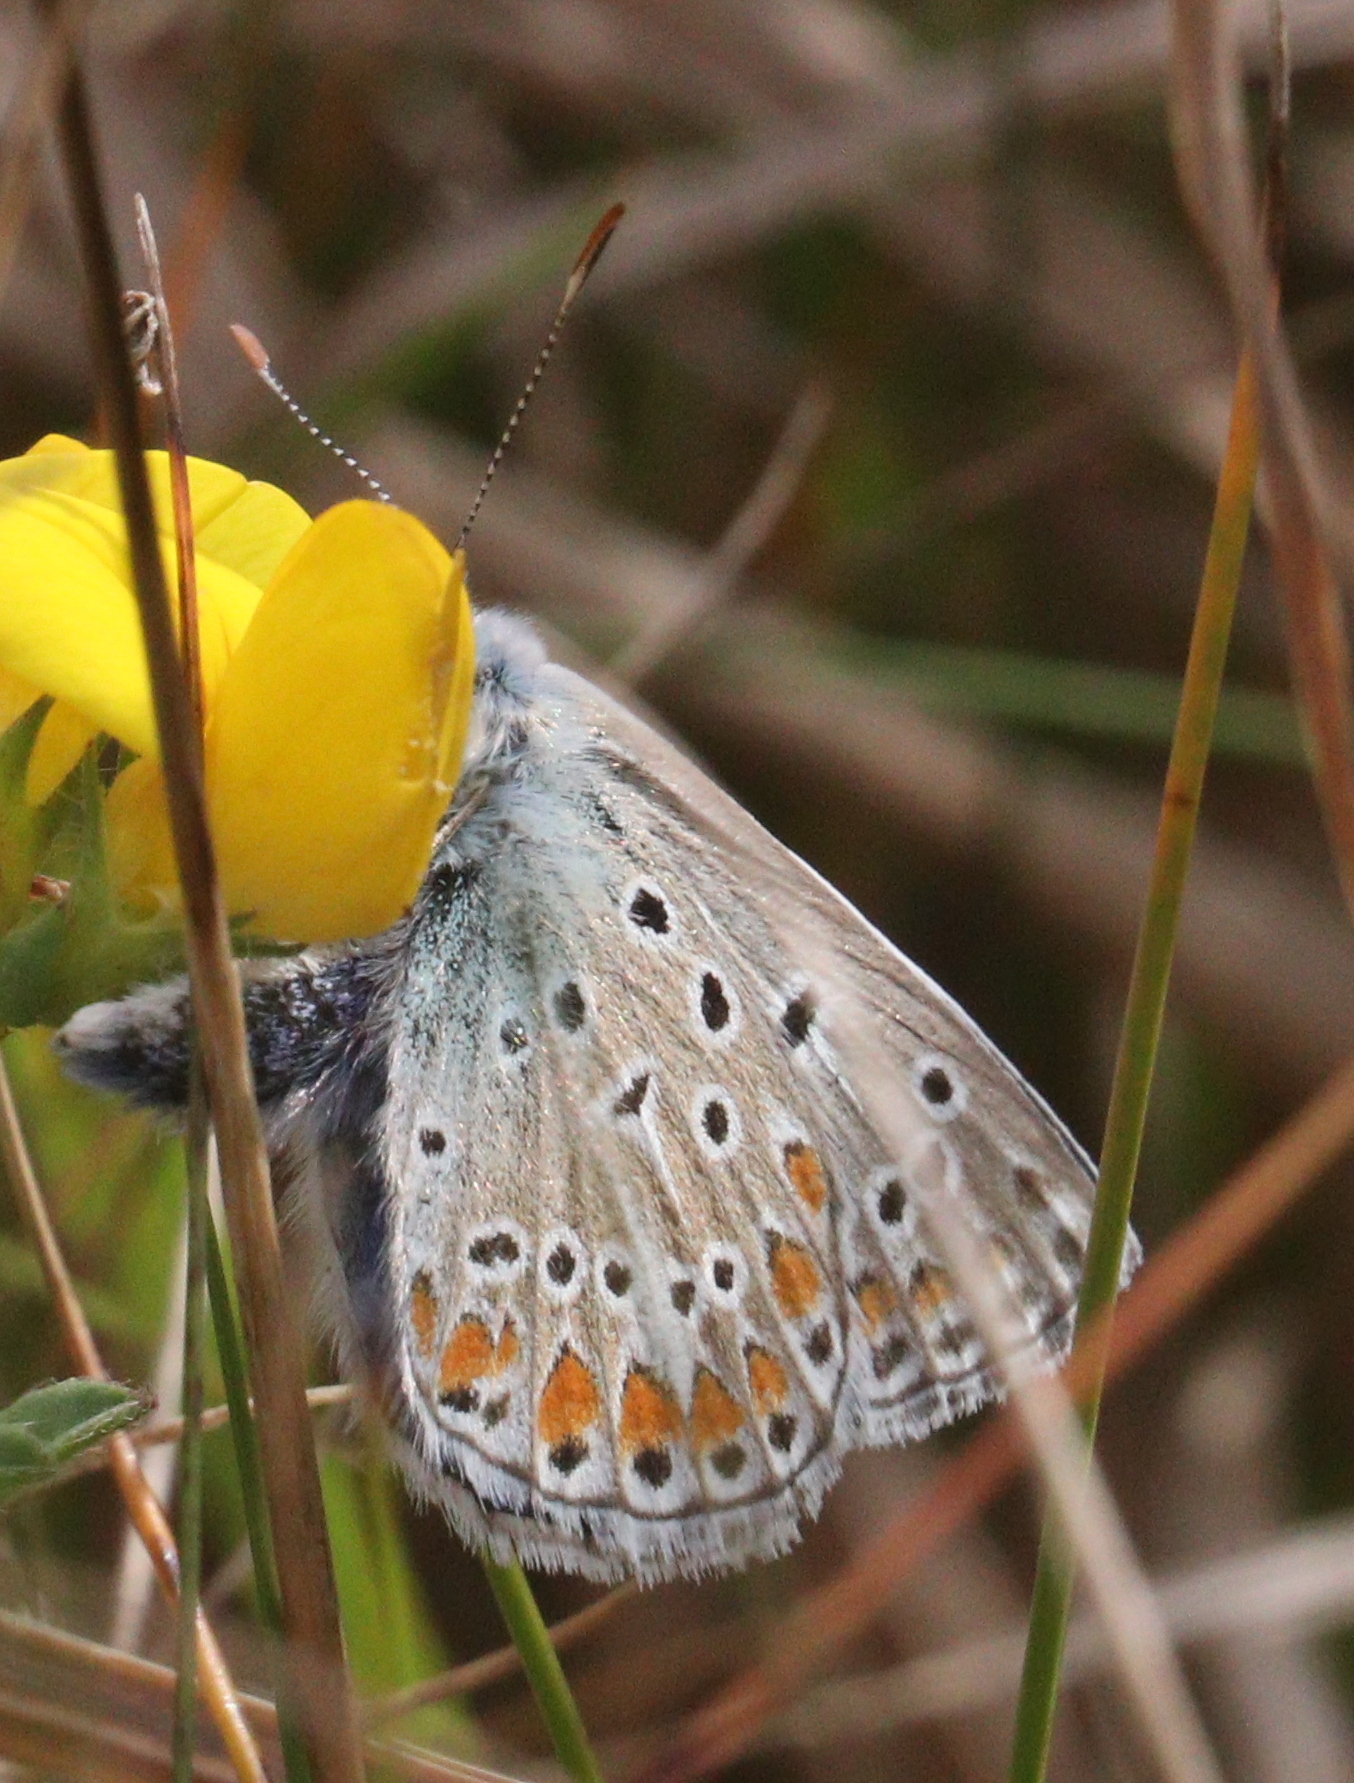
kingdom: Animalia
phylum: Arthropoda
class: Insecta
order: Lepidoptera
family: Lycaenidae
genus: Polyommatus
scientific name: Polyommatus icarus
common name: Common blue
